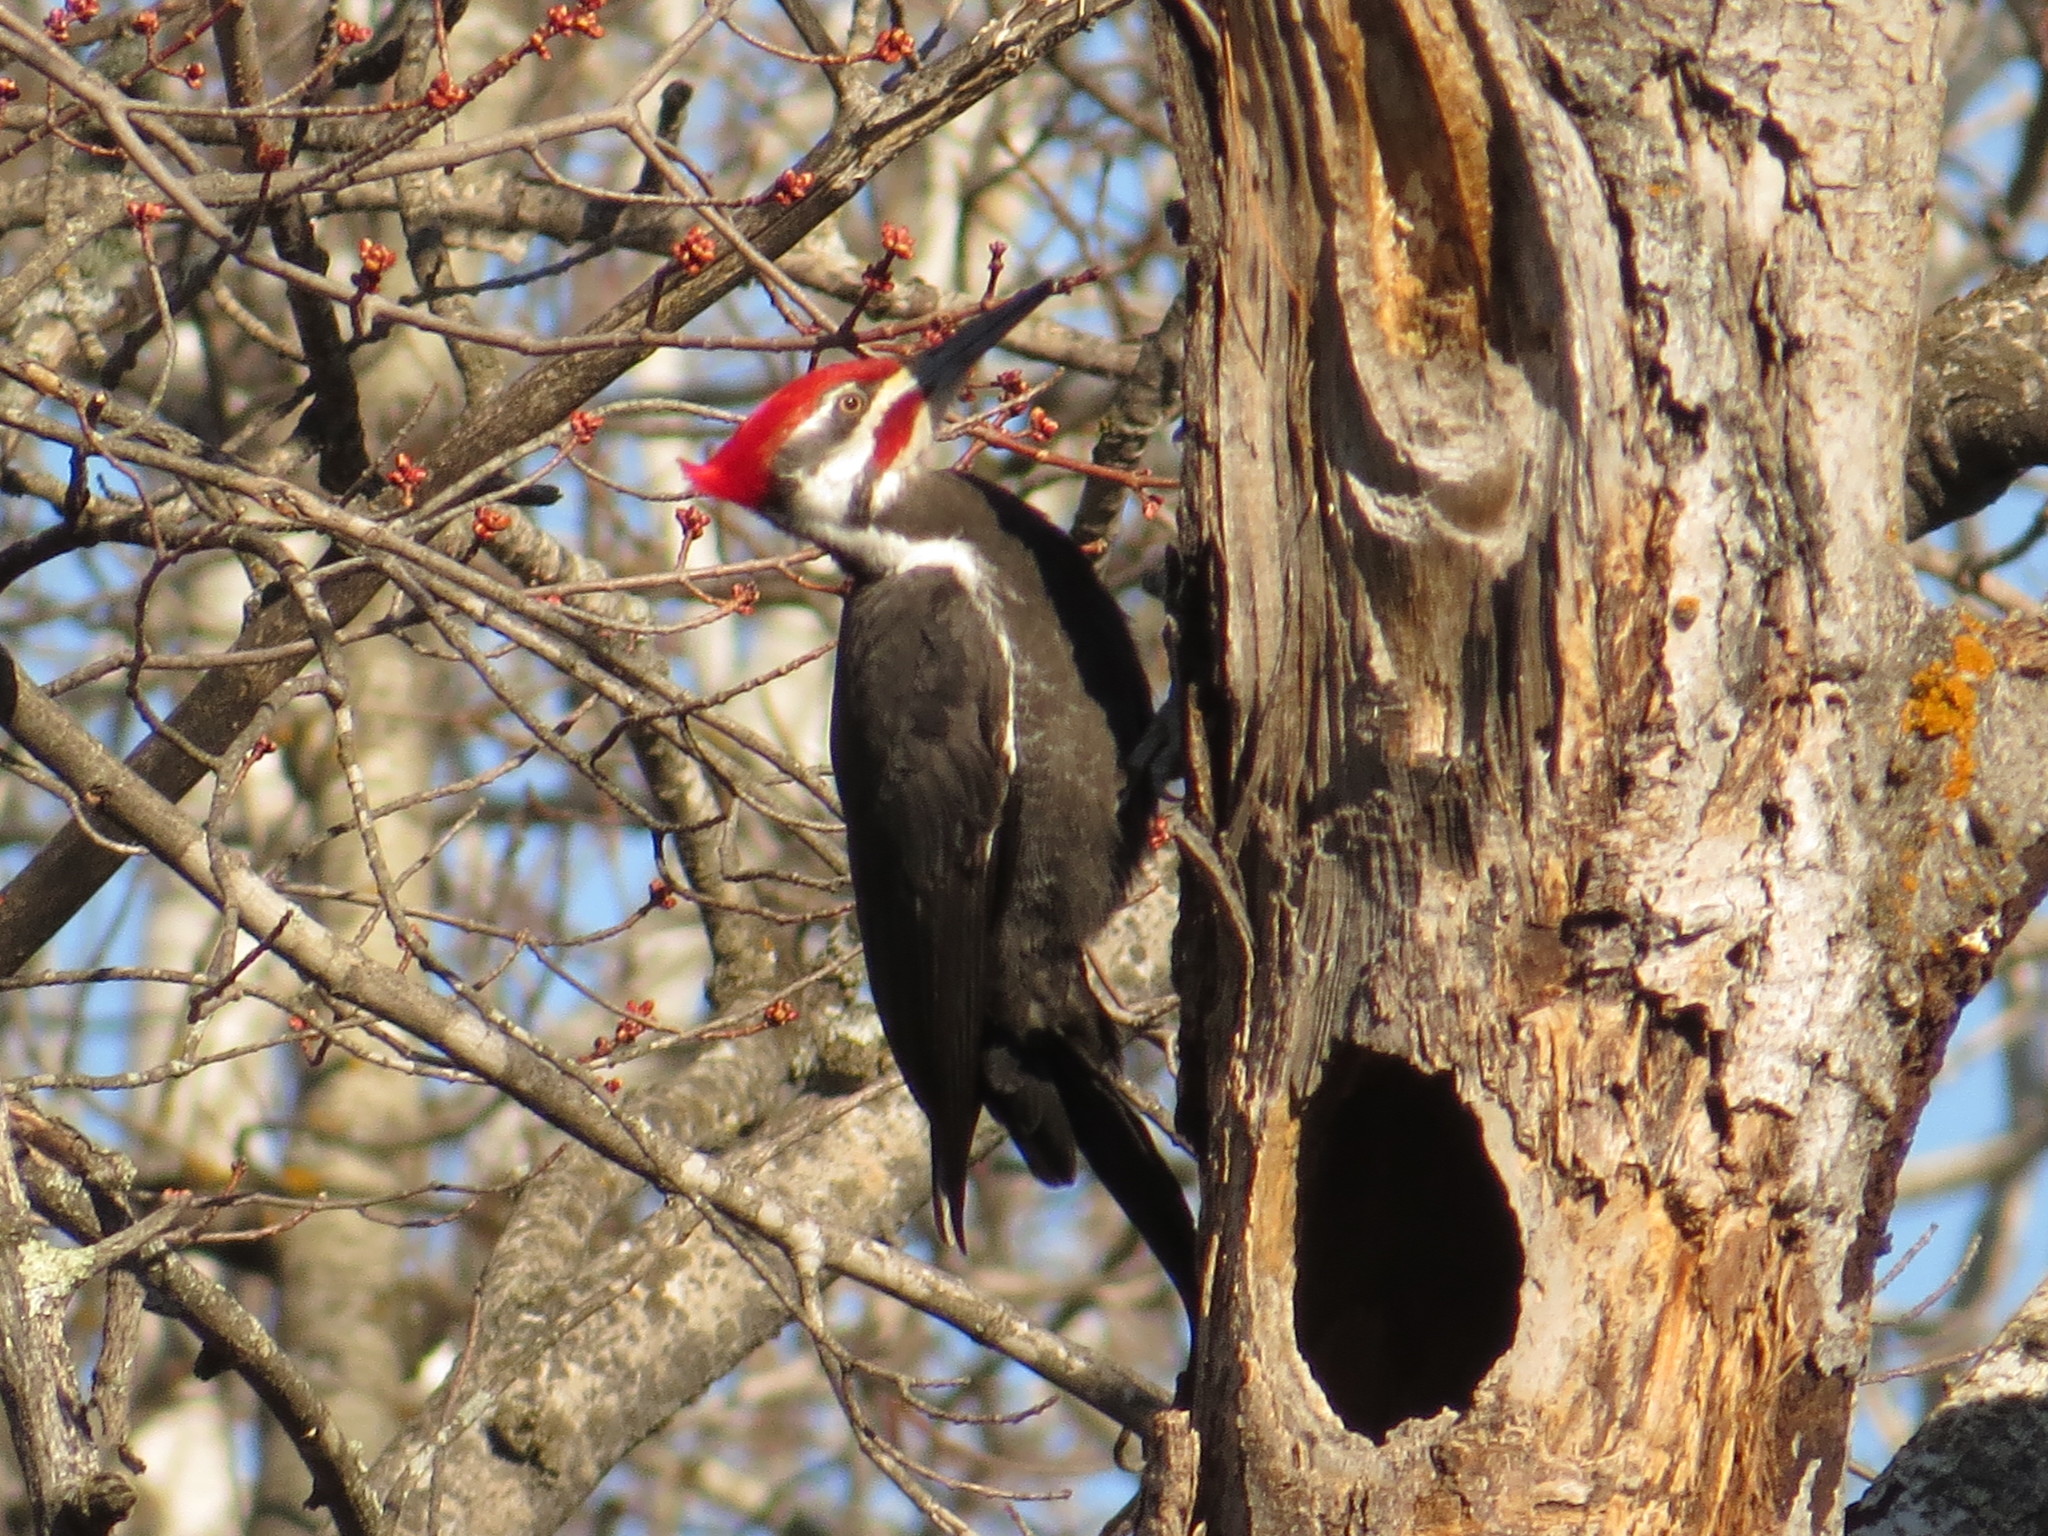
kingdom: Animalia
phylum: Chordata
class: Aves
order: Piciformes
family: Picidae
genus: Dryocopus
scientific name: Dryocopus pileatus
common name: Pileated woodpecker
